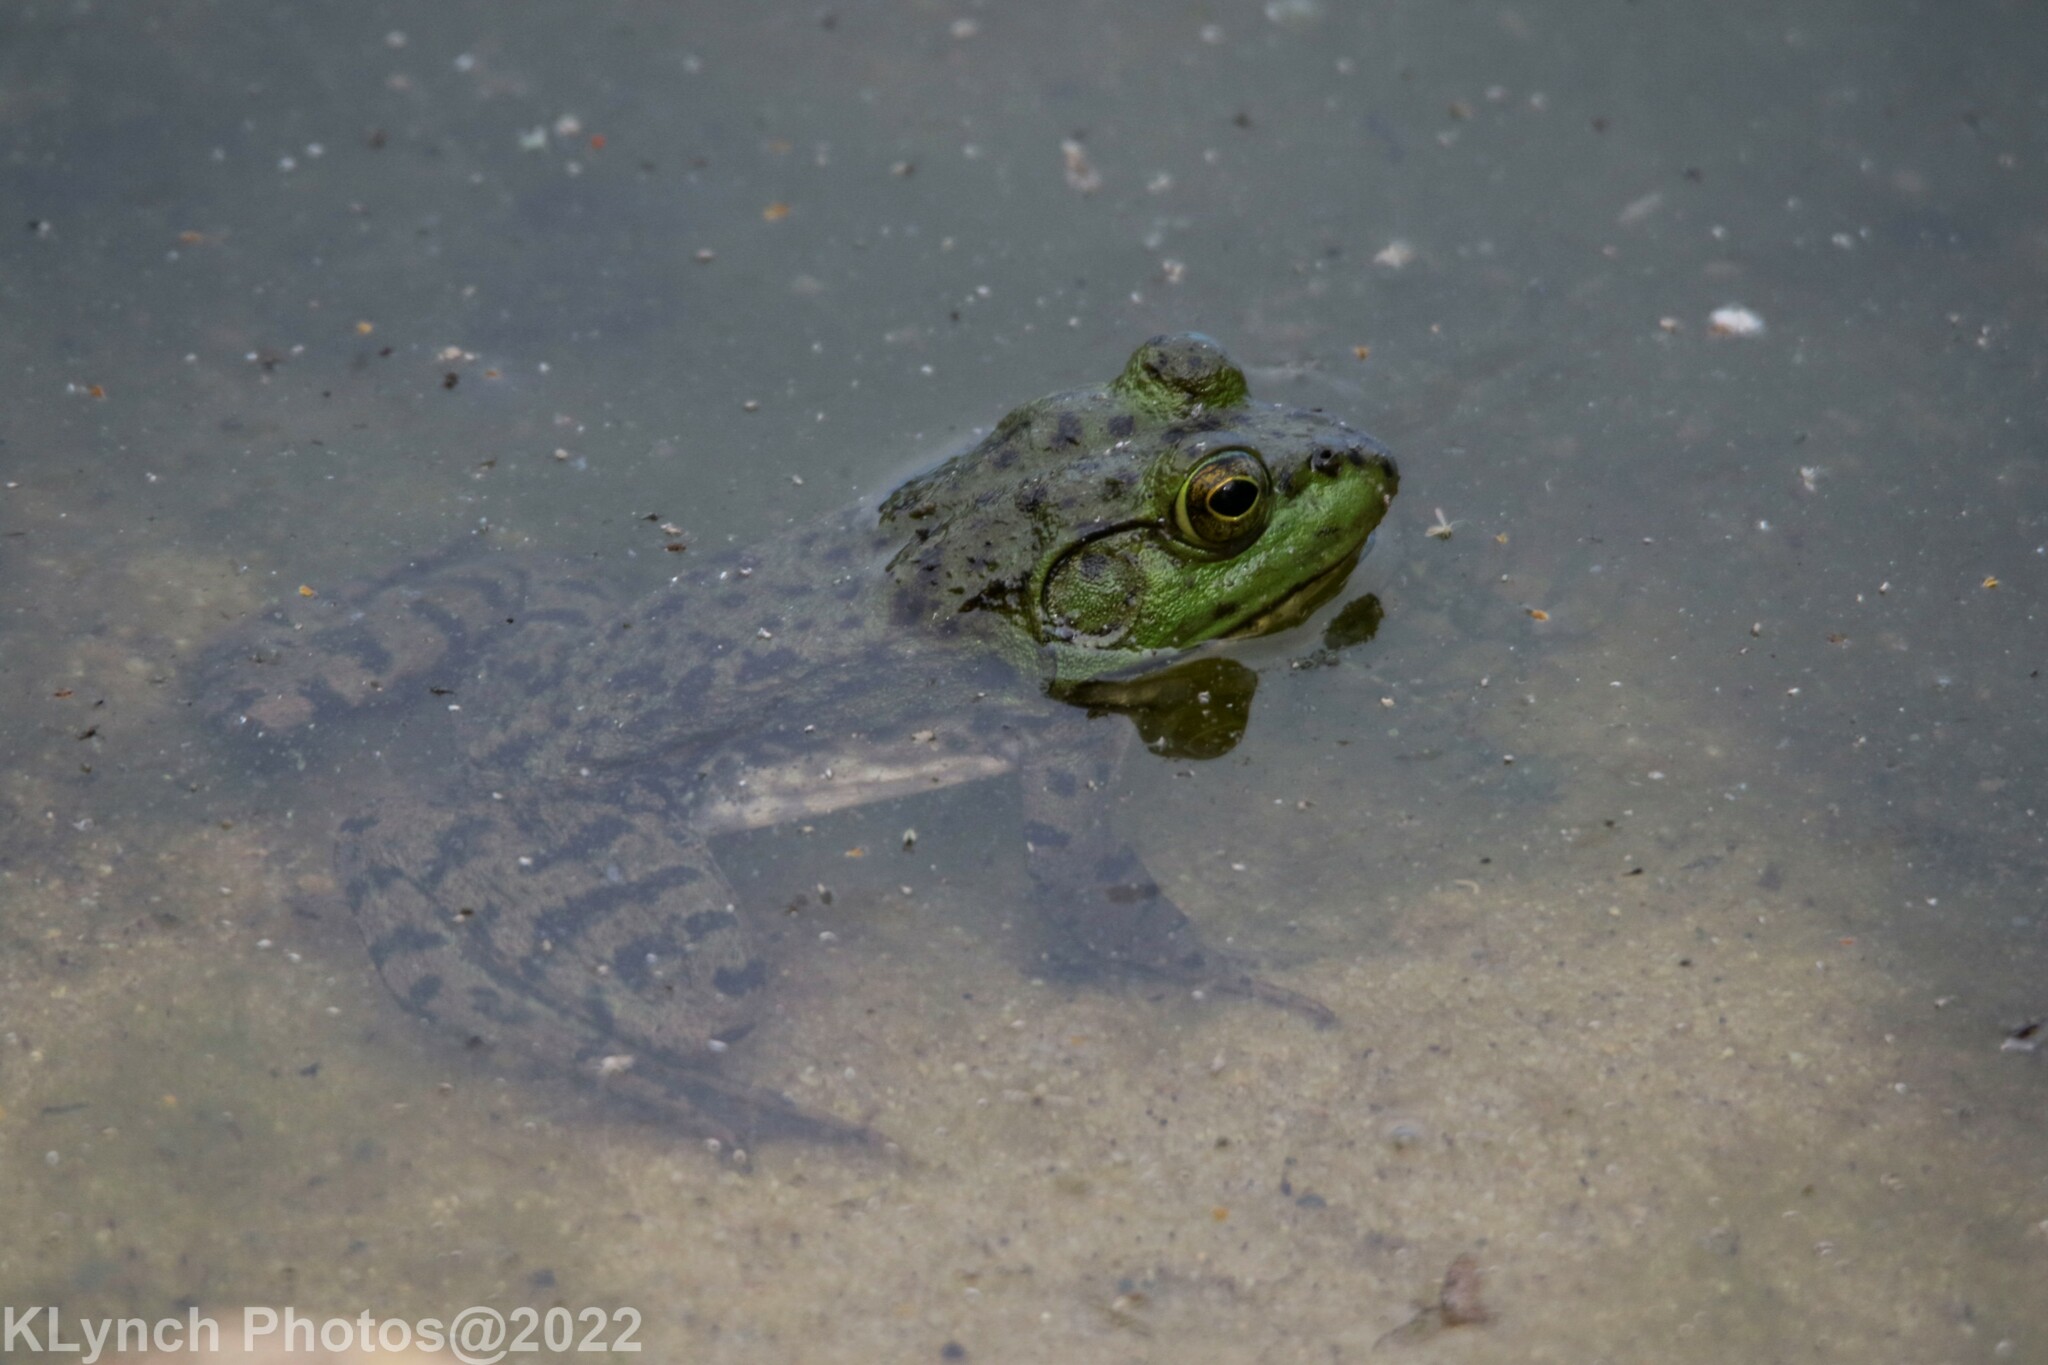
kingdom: Animalia
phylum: Chordata
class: Amphibia
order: Anura
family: Ranidae
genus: Lithobates
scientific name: Lithobates clamitans
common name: Green frog
